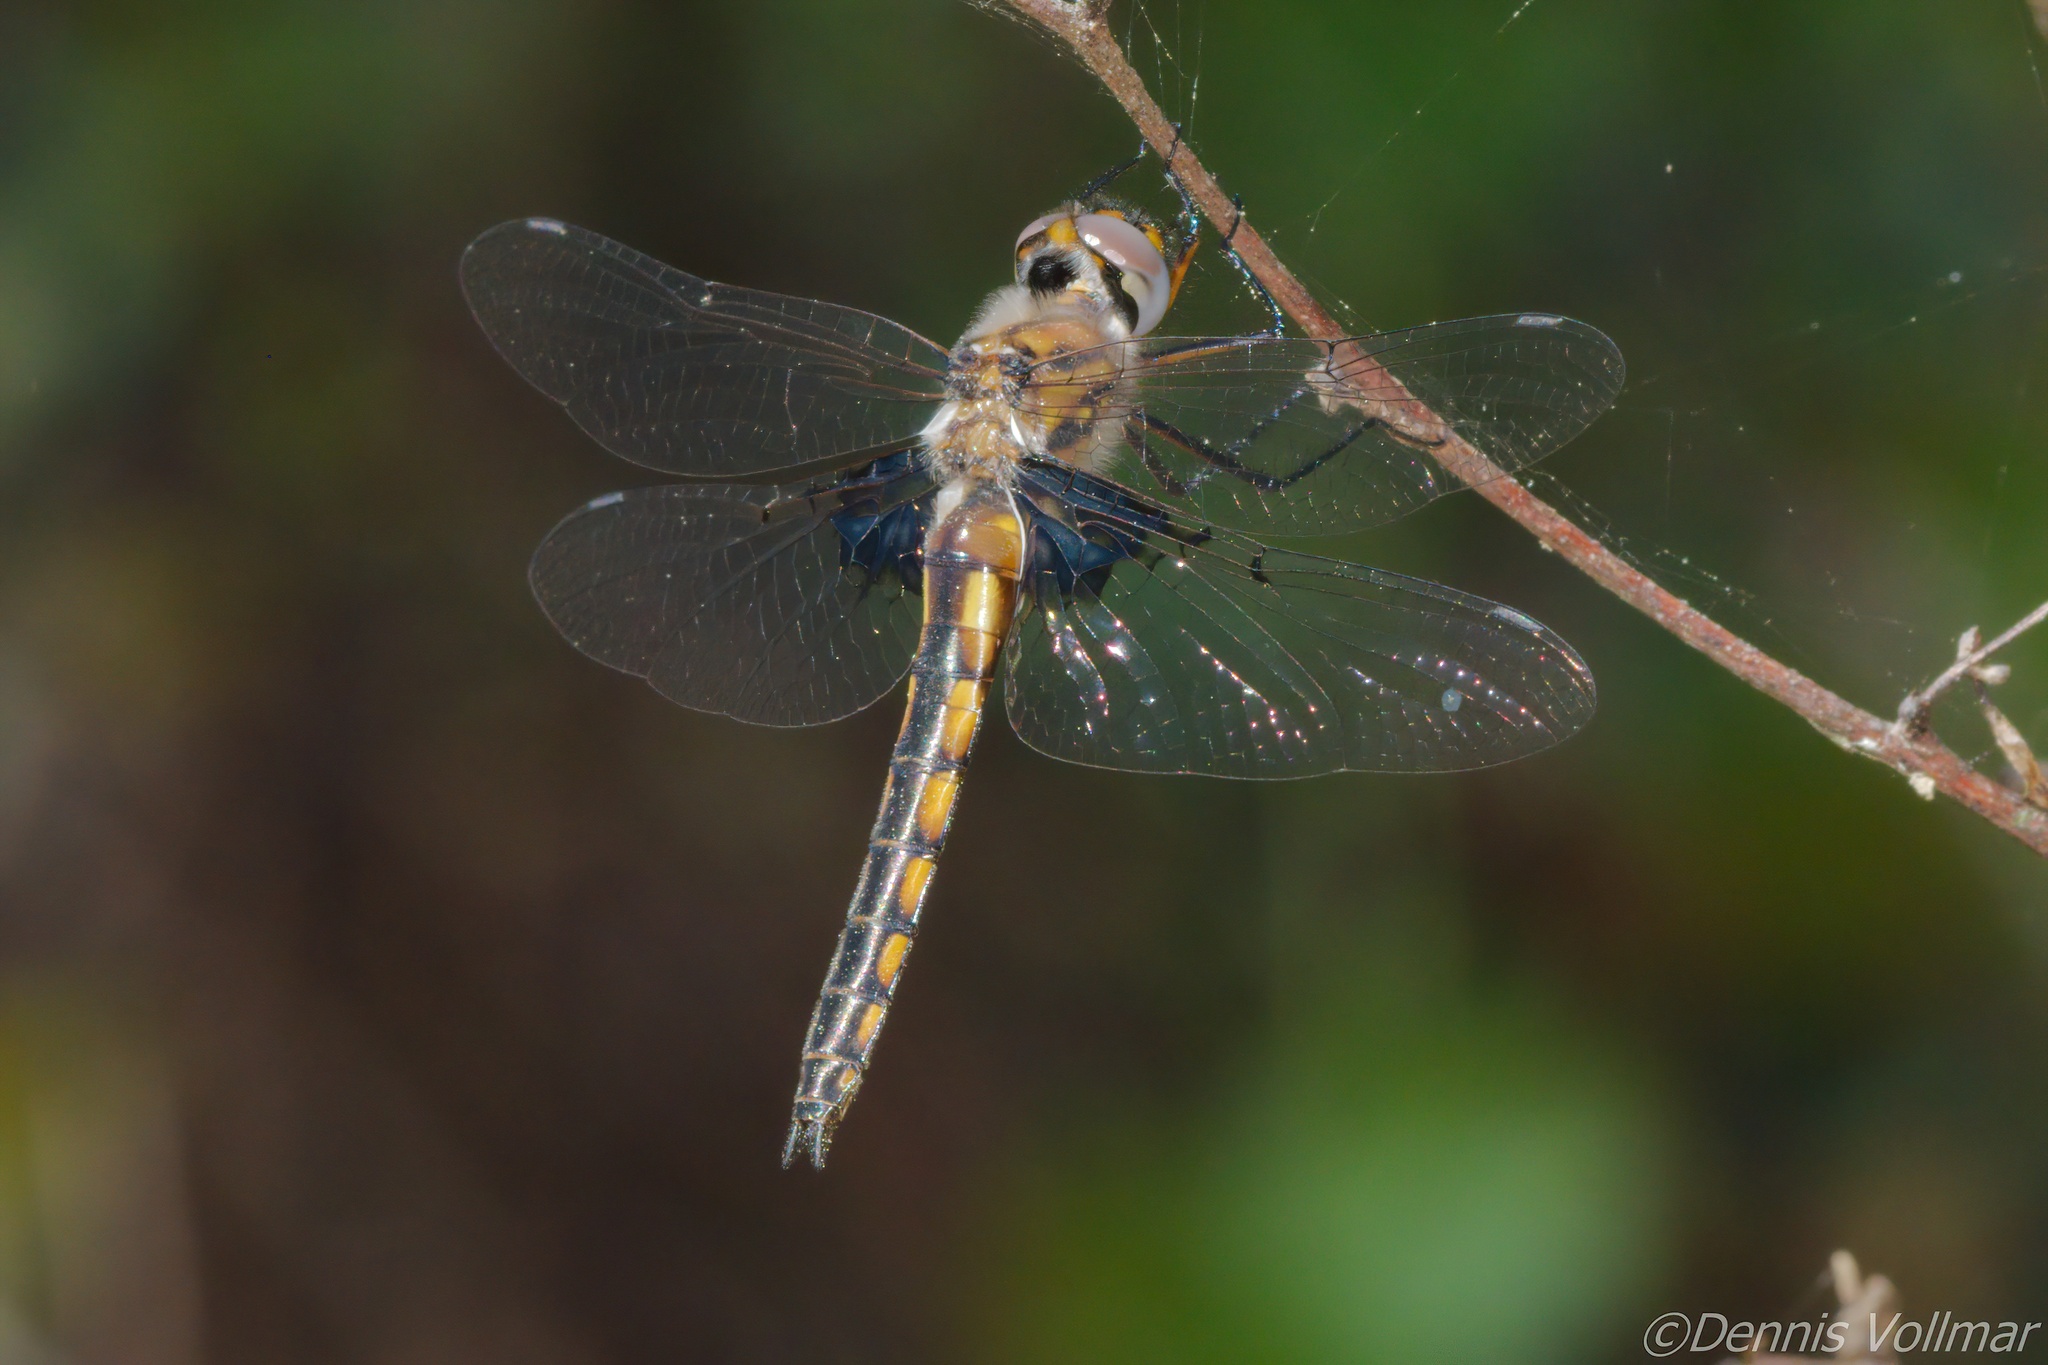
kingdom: Animalia
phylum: Arthropoda
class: Insecta
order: Odonata
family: Corduliidae
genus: Epitheca
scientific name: Epitheca cynosura
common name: Common baskettail
